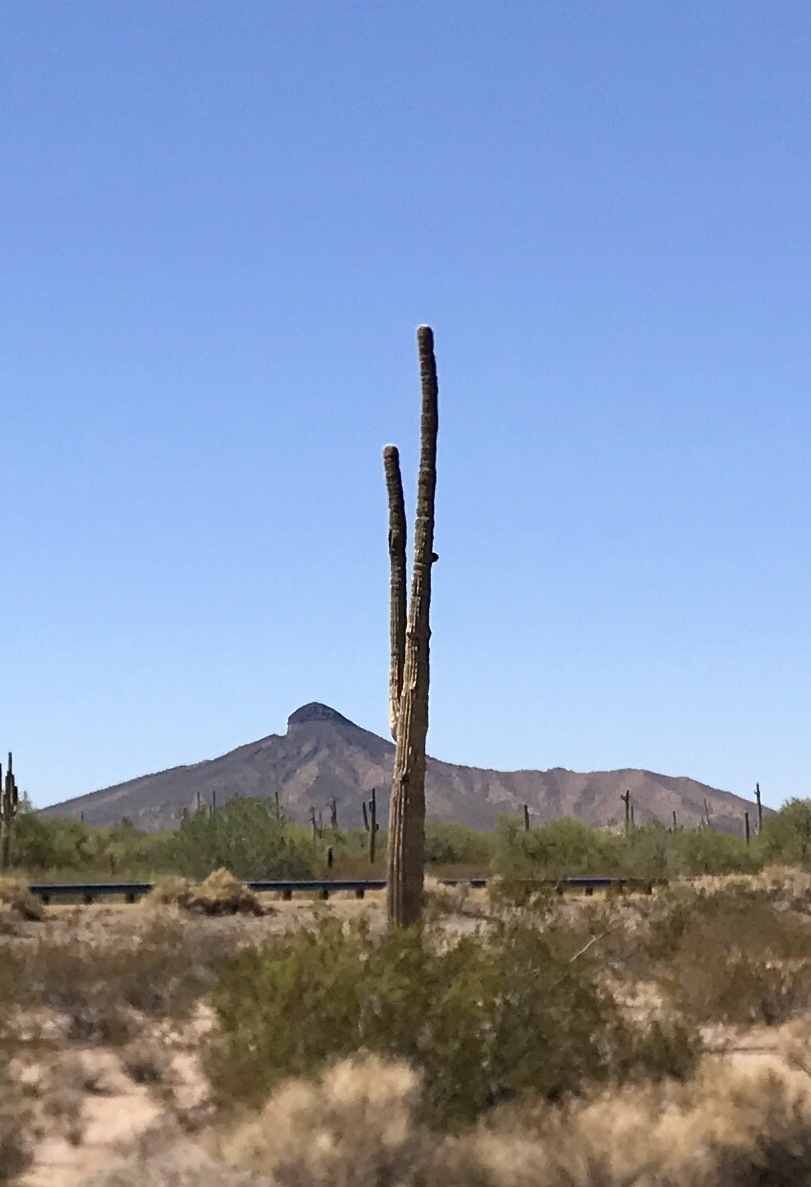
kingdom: Plantae
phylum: Tracheophyta
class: Magnoliopsida
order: Caryophyllales
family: Cactaceae
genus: Carnegiea
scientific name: Carnegiea gigantea
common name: Saguaro
